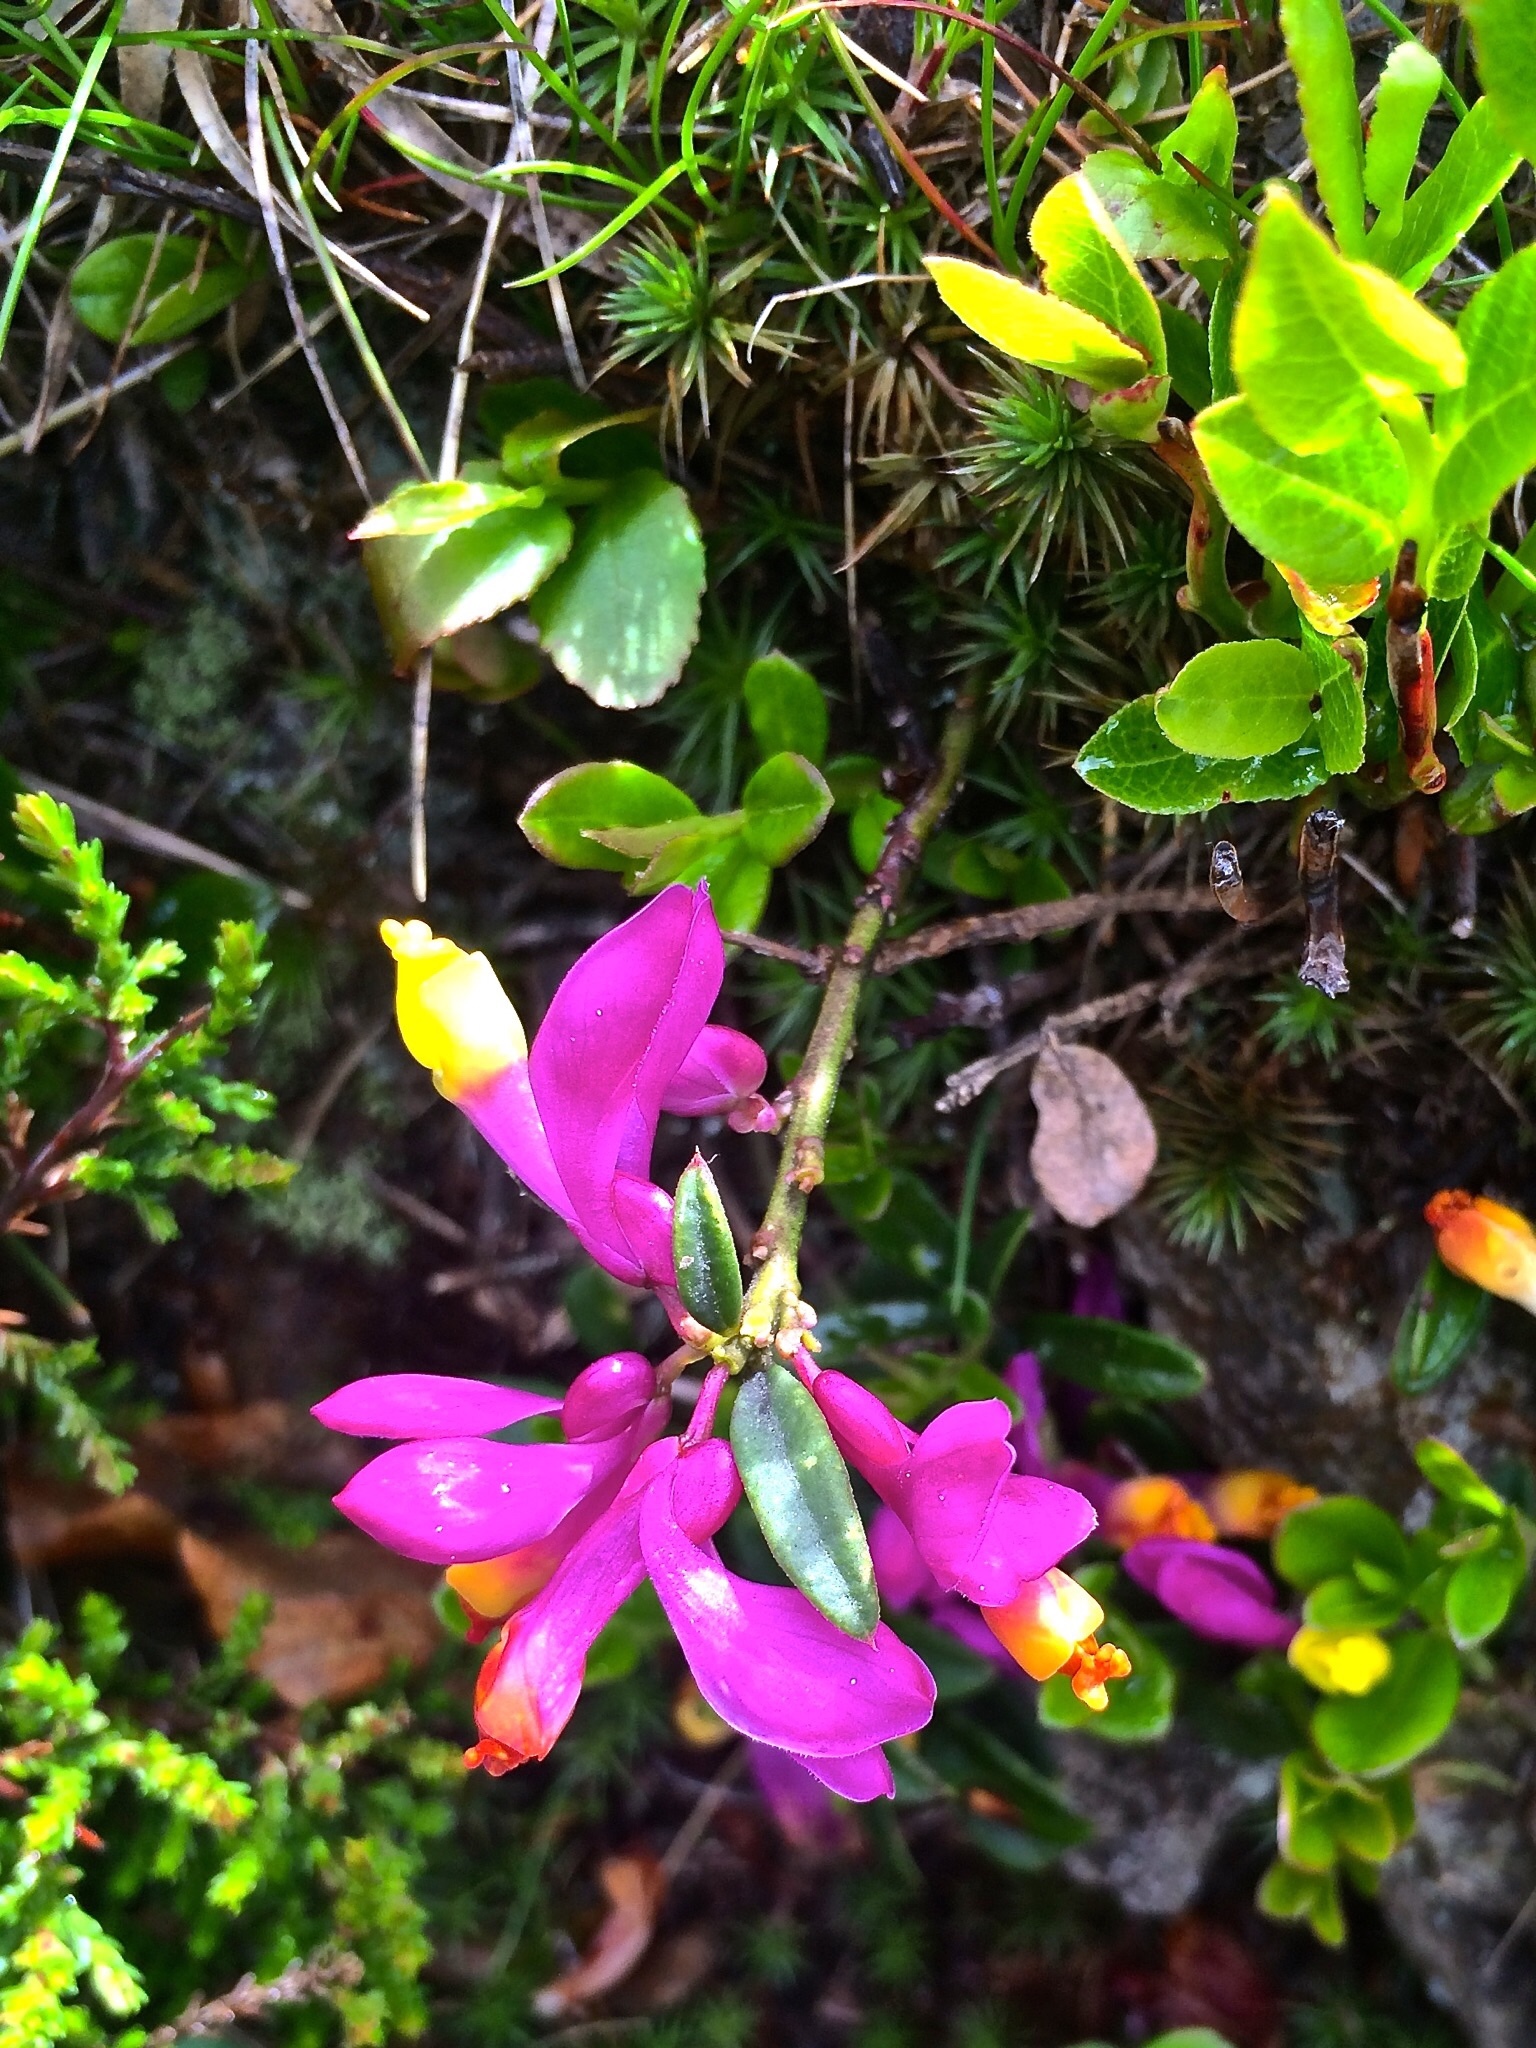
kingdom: Plantae
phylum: Tracheophyta
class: Magnoliopsida
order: Fabales
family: Polygalaceae
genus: Polygaloides
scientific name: Polygaloides chamaebuxus
